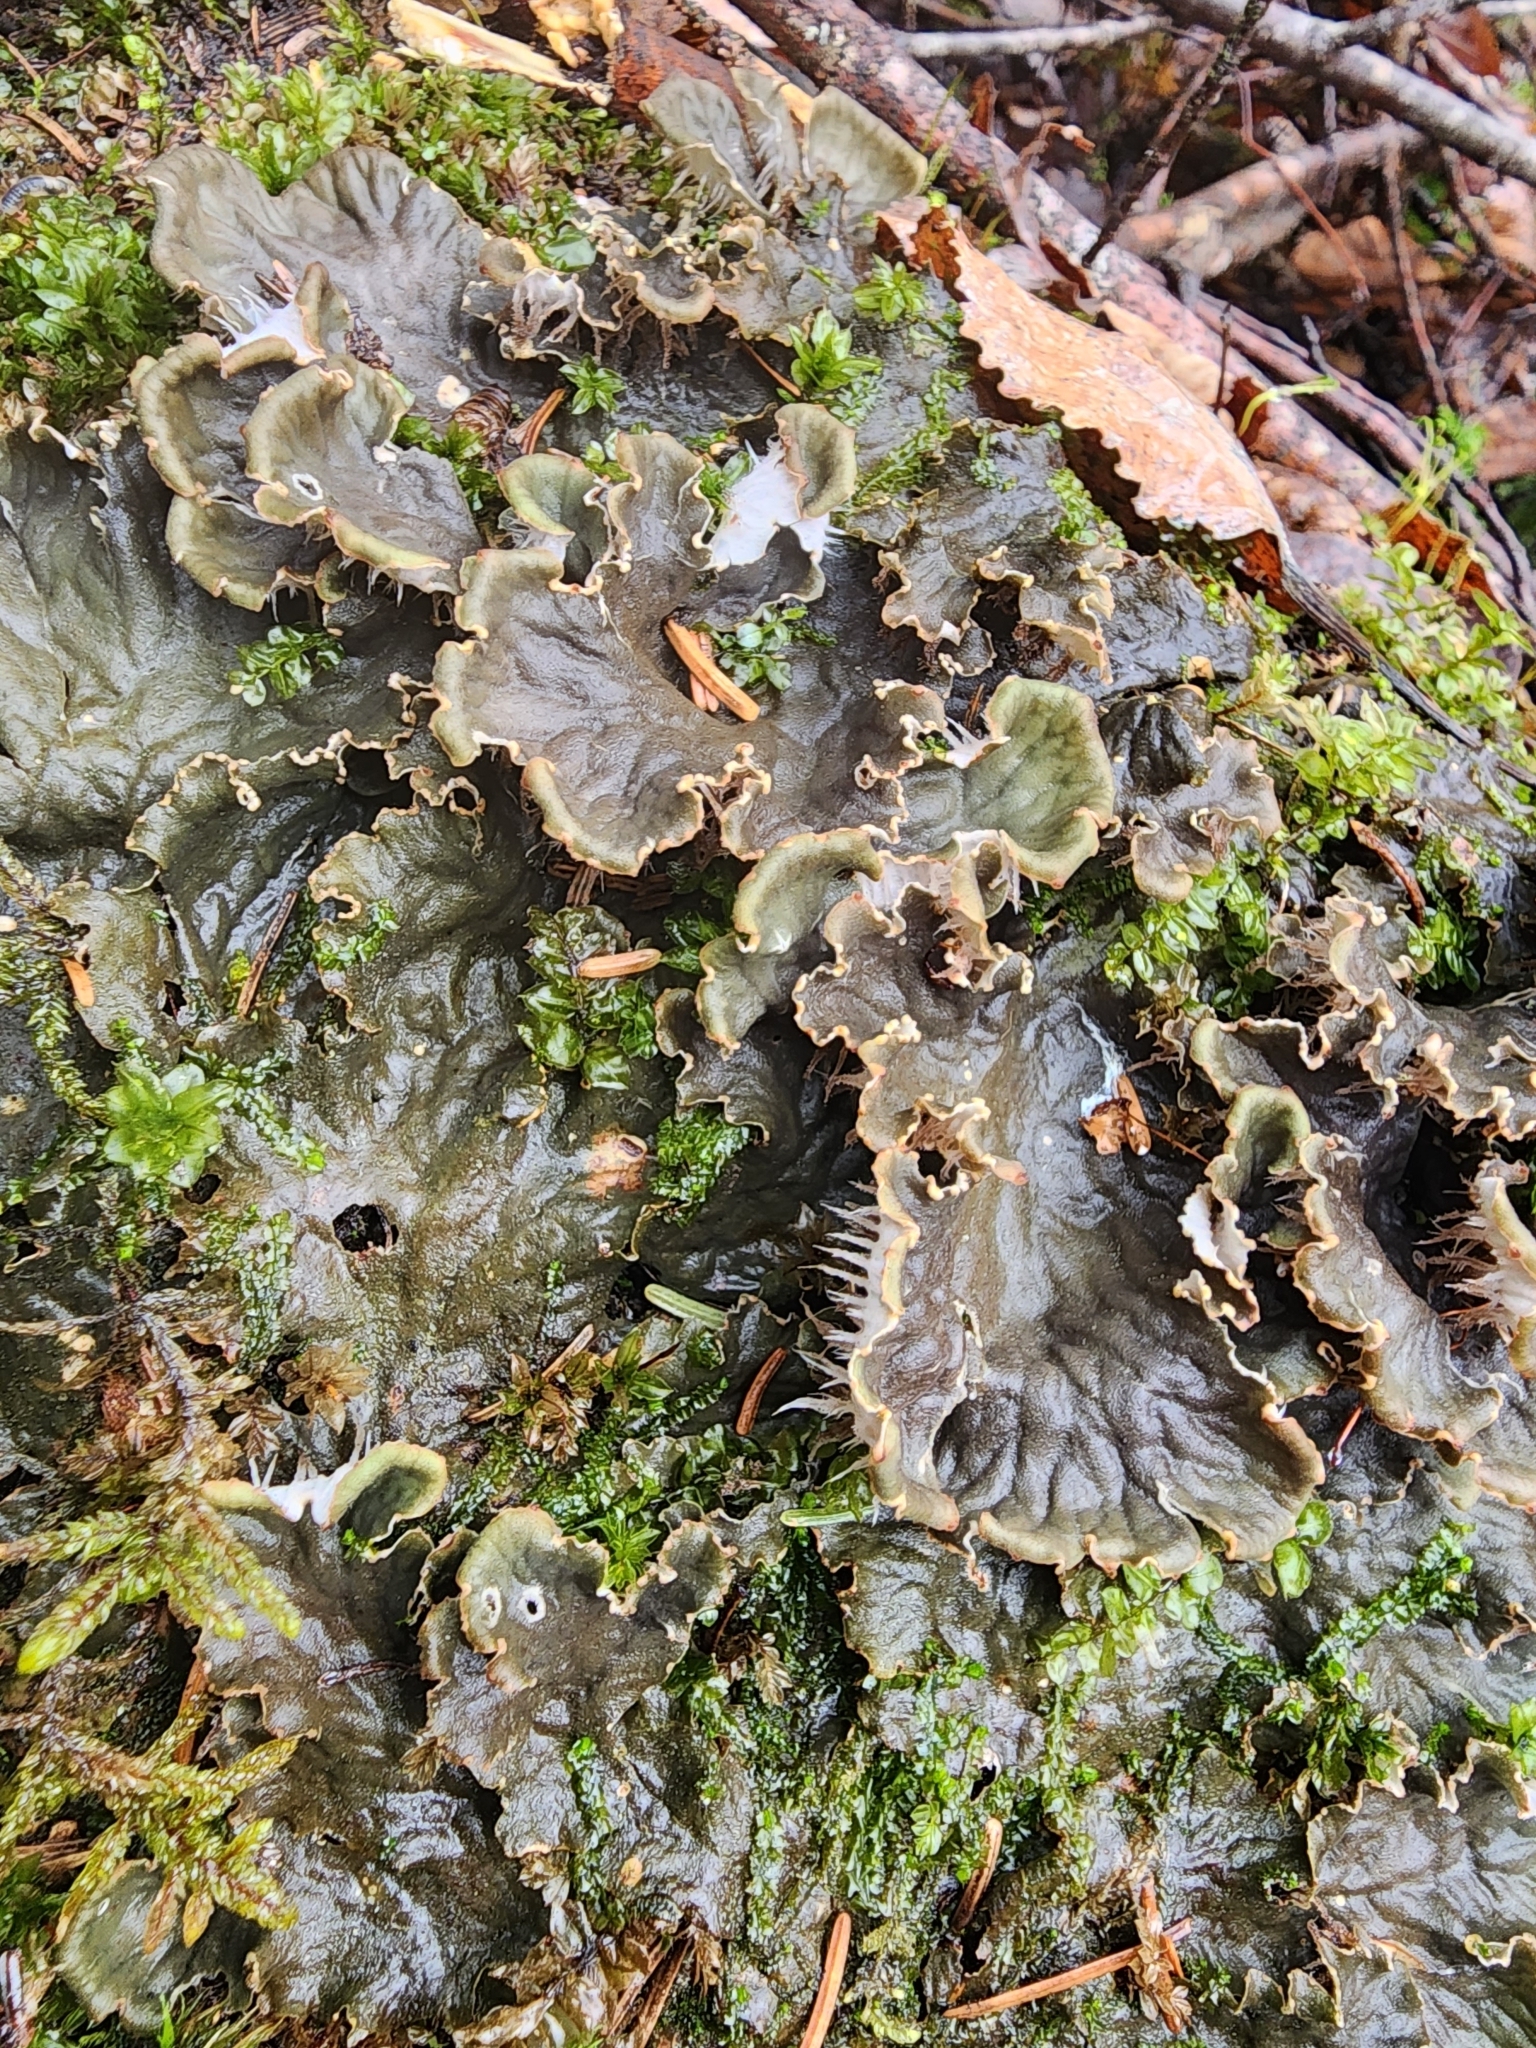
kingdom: Fungi
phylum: Ascomycota
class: Lecanoromycetes
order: Peltigerales
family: Peltigeraceae
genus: Peltigera
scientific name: Peltigera canina
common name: Dog pelt lichen
